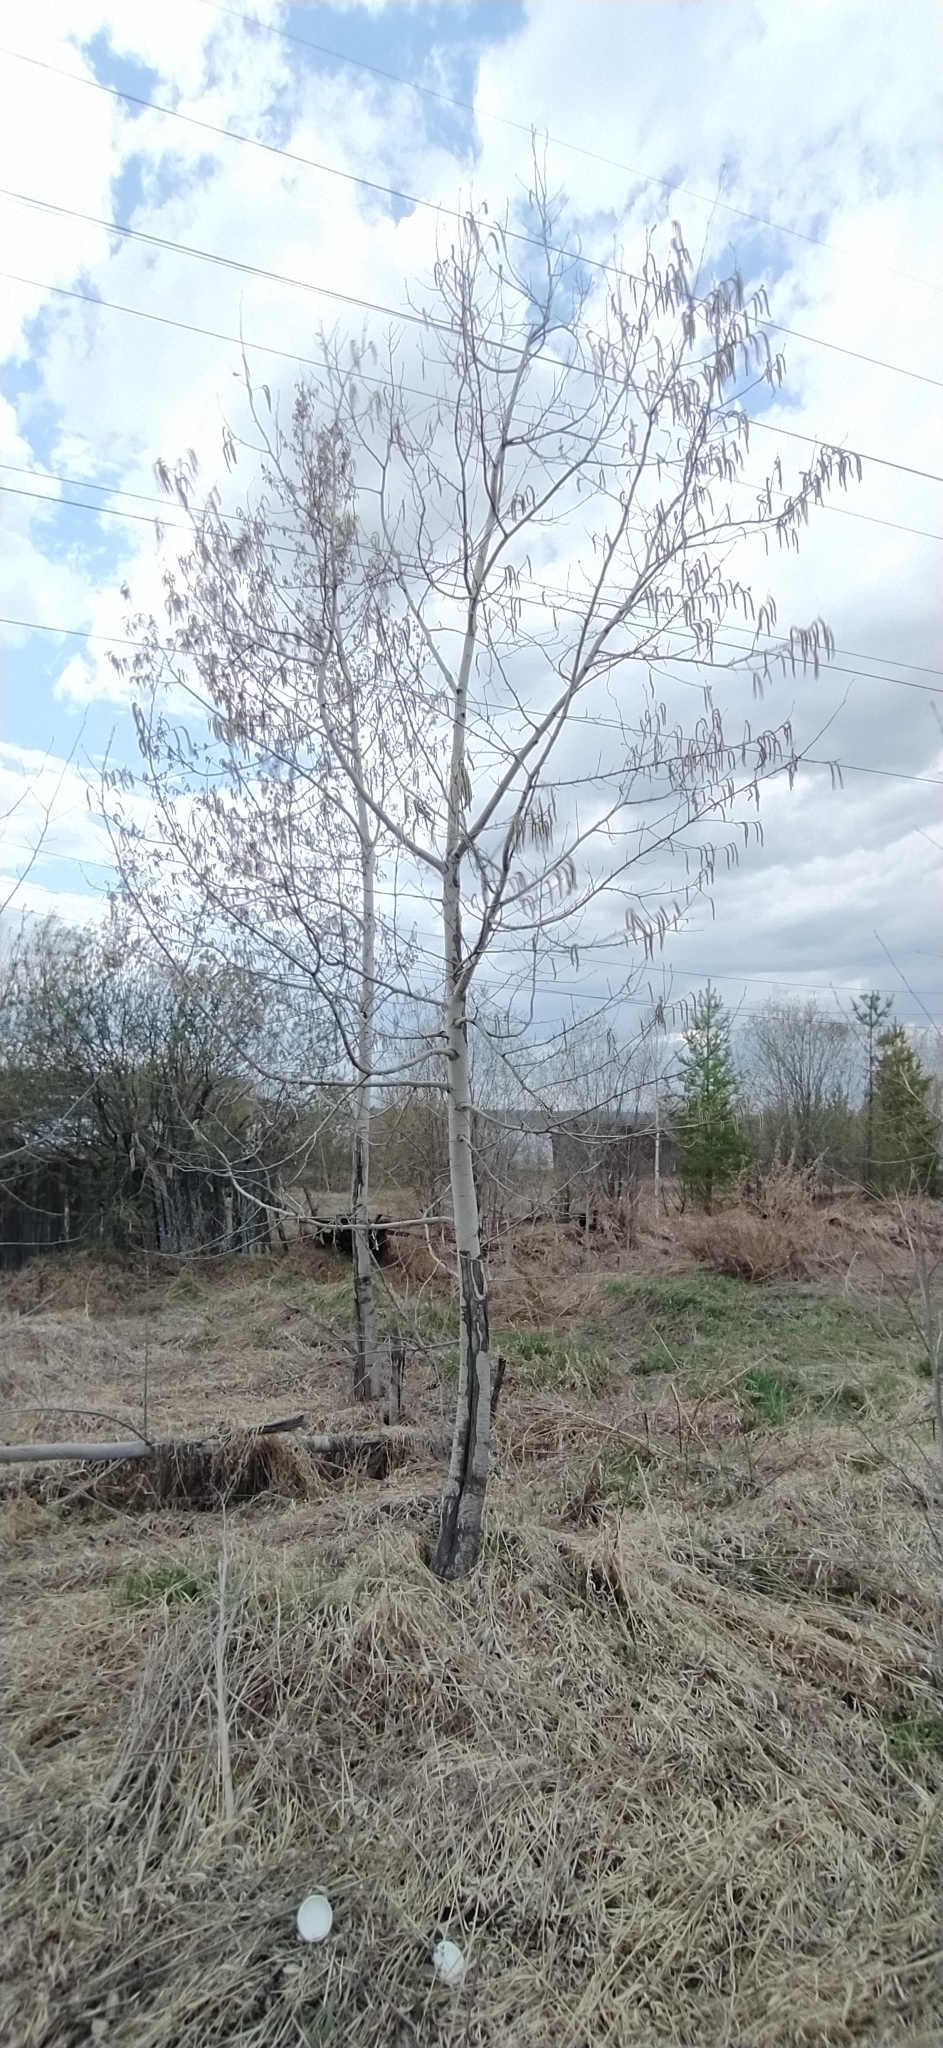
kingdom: Plantae
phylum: Tracheophyta
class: Magnoliopsida
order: Malpighiales
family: Salicaceae
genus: Populus
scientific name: Populus tremula
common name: European aspen
